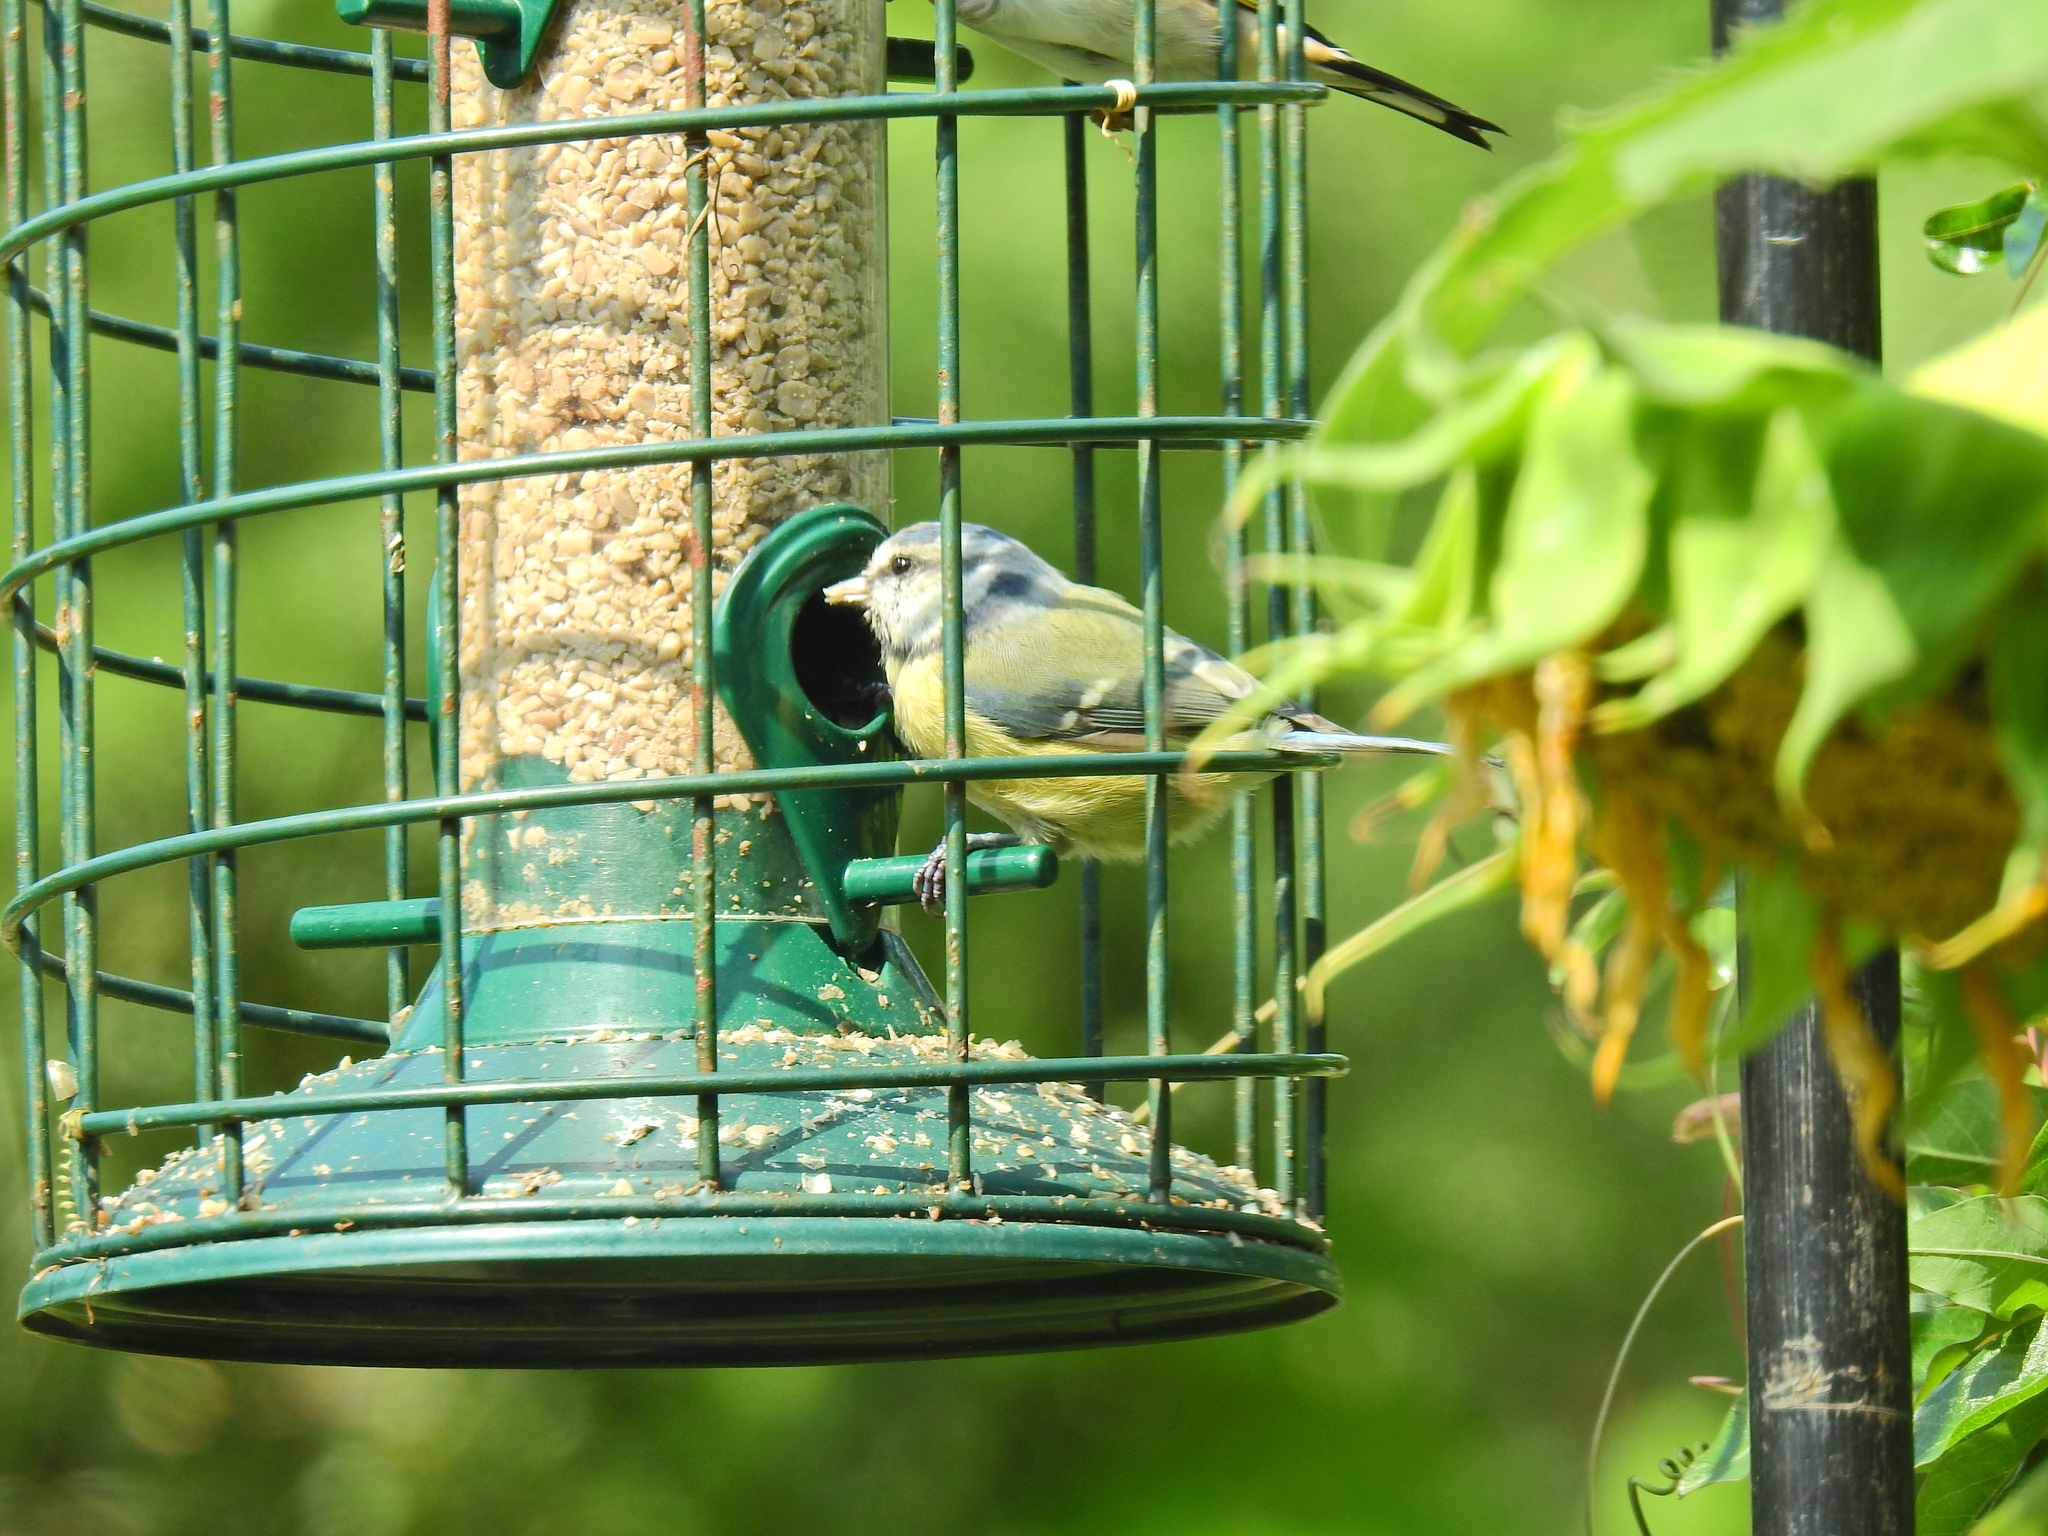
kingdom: Animalia
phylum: Chordata
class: Aves
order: Passeriformes
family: Paridae
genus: Cyanistes
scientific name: Cyanistes caeruleus
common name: Eurasian blue tit
